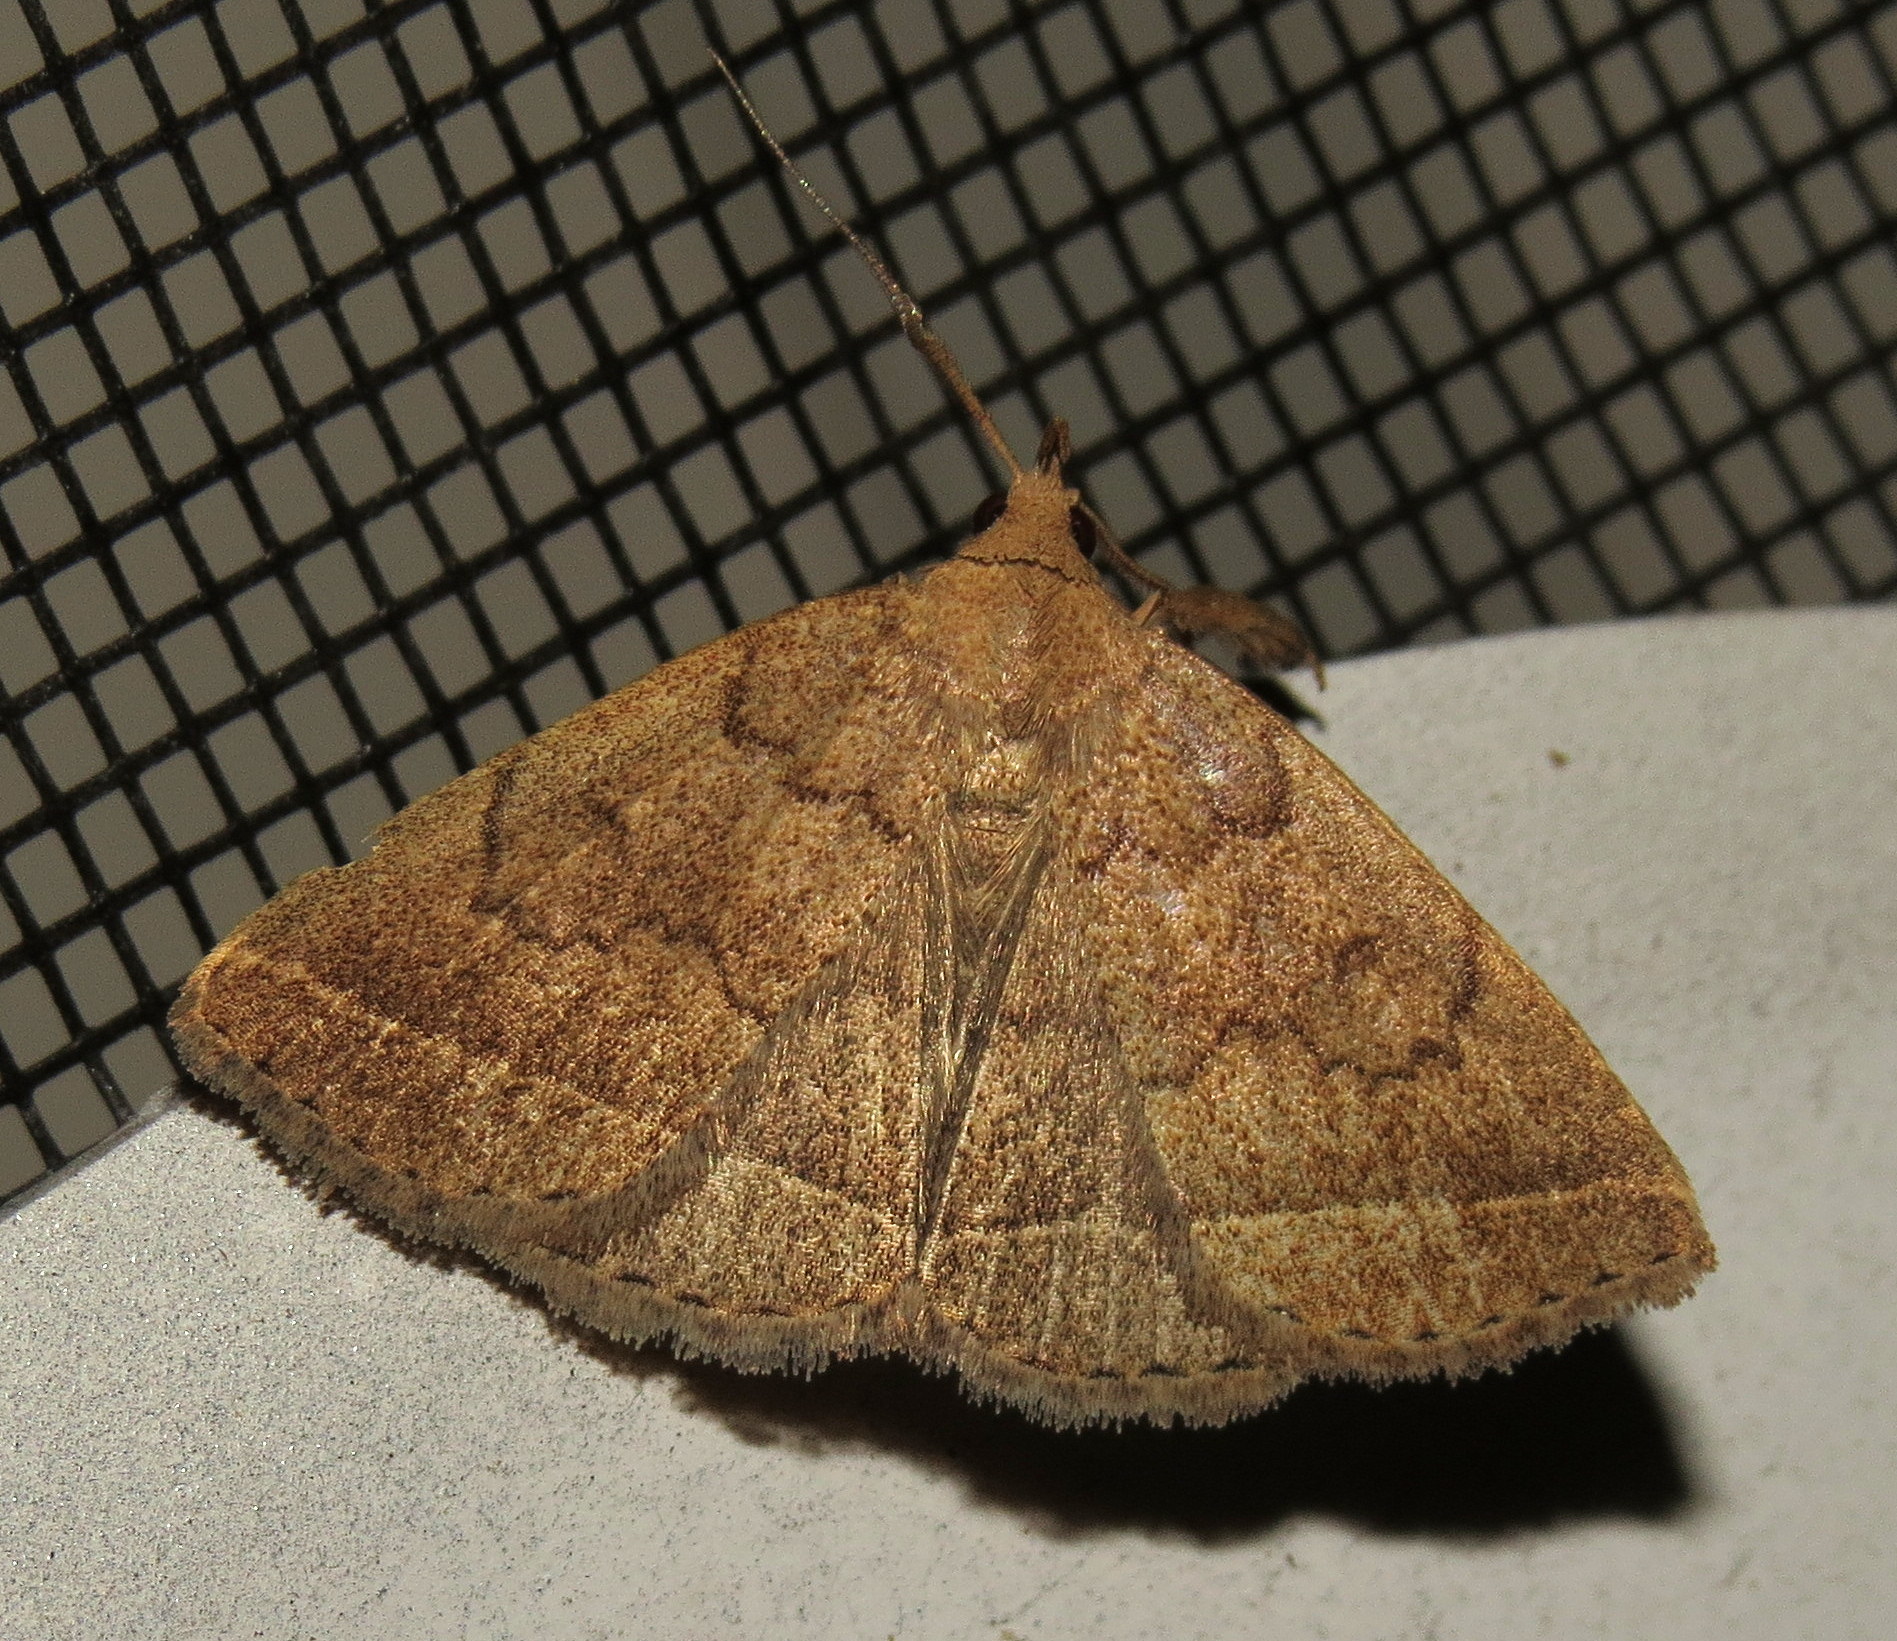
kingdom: Animalia
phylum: Arthropoda
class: Insecta
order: Lepidoptera
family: Erebidae
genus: Zanclognatha
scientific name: Zanclognatha jacchusalis
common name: Yellowish zanclognatha
